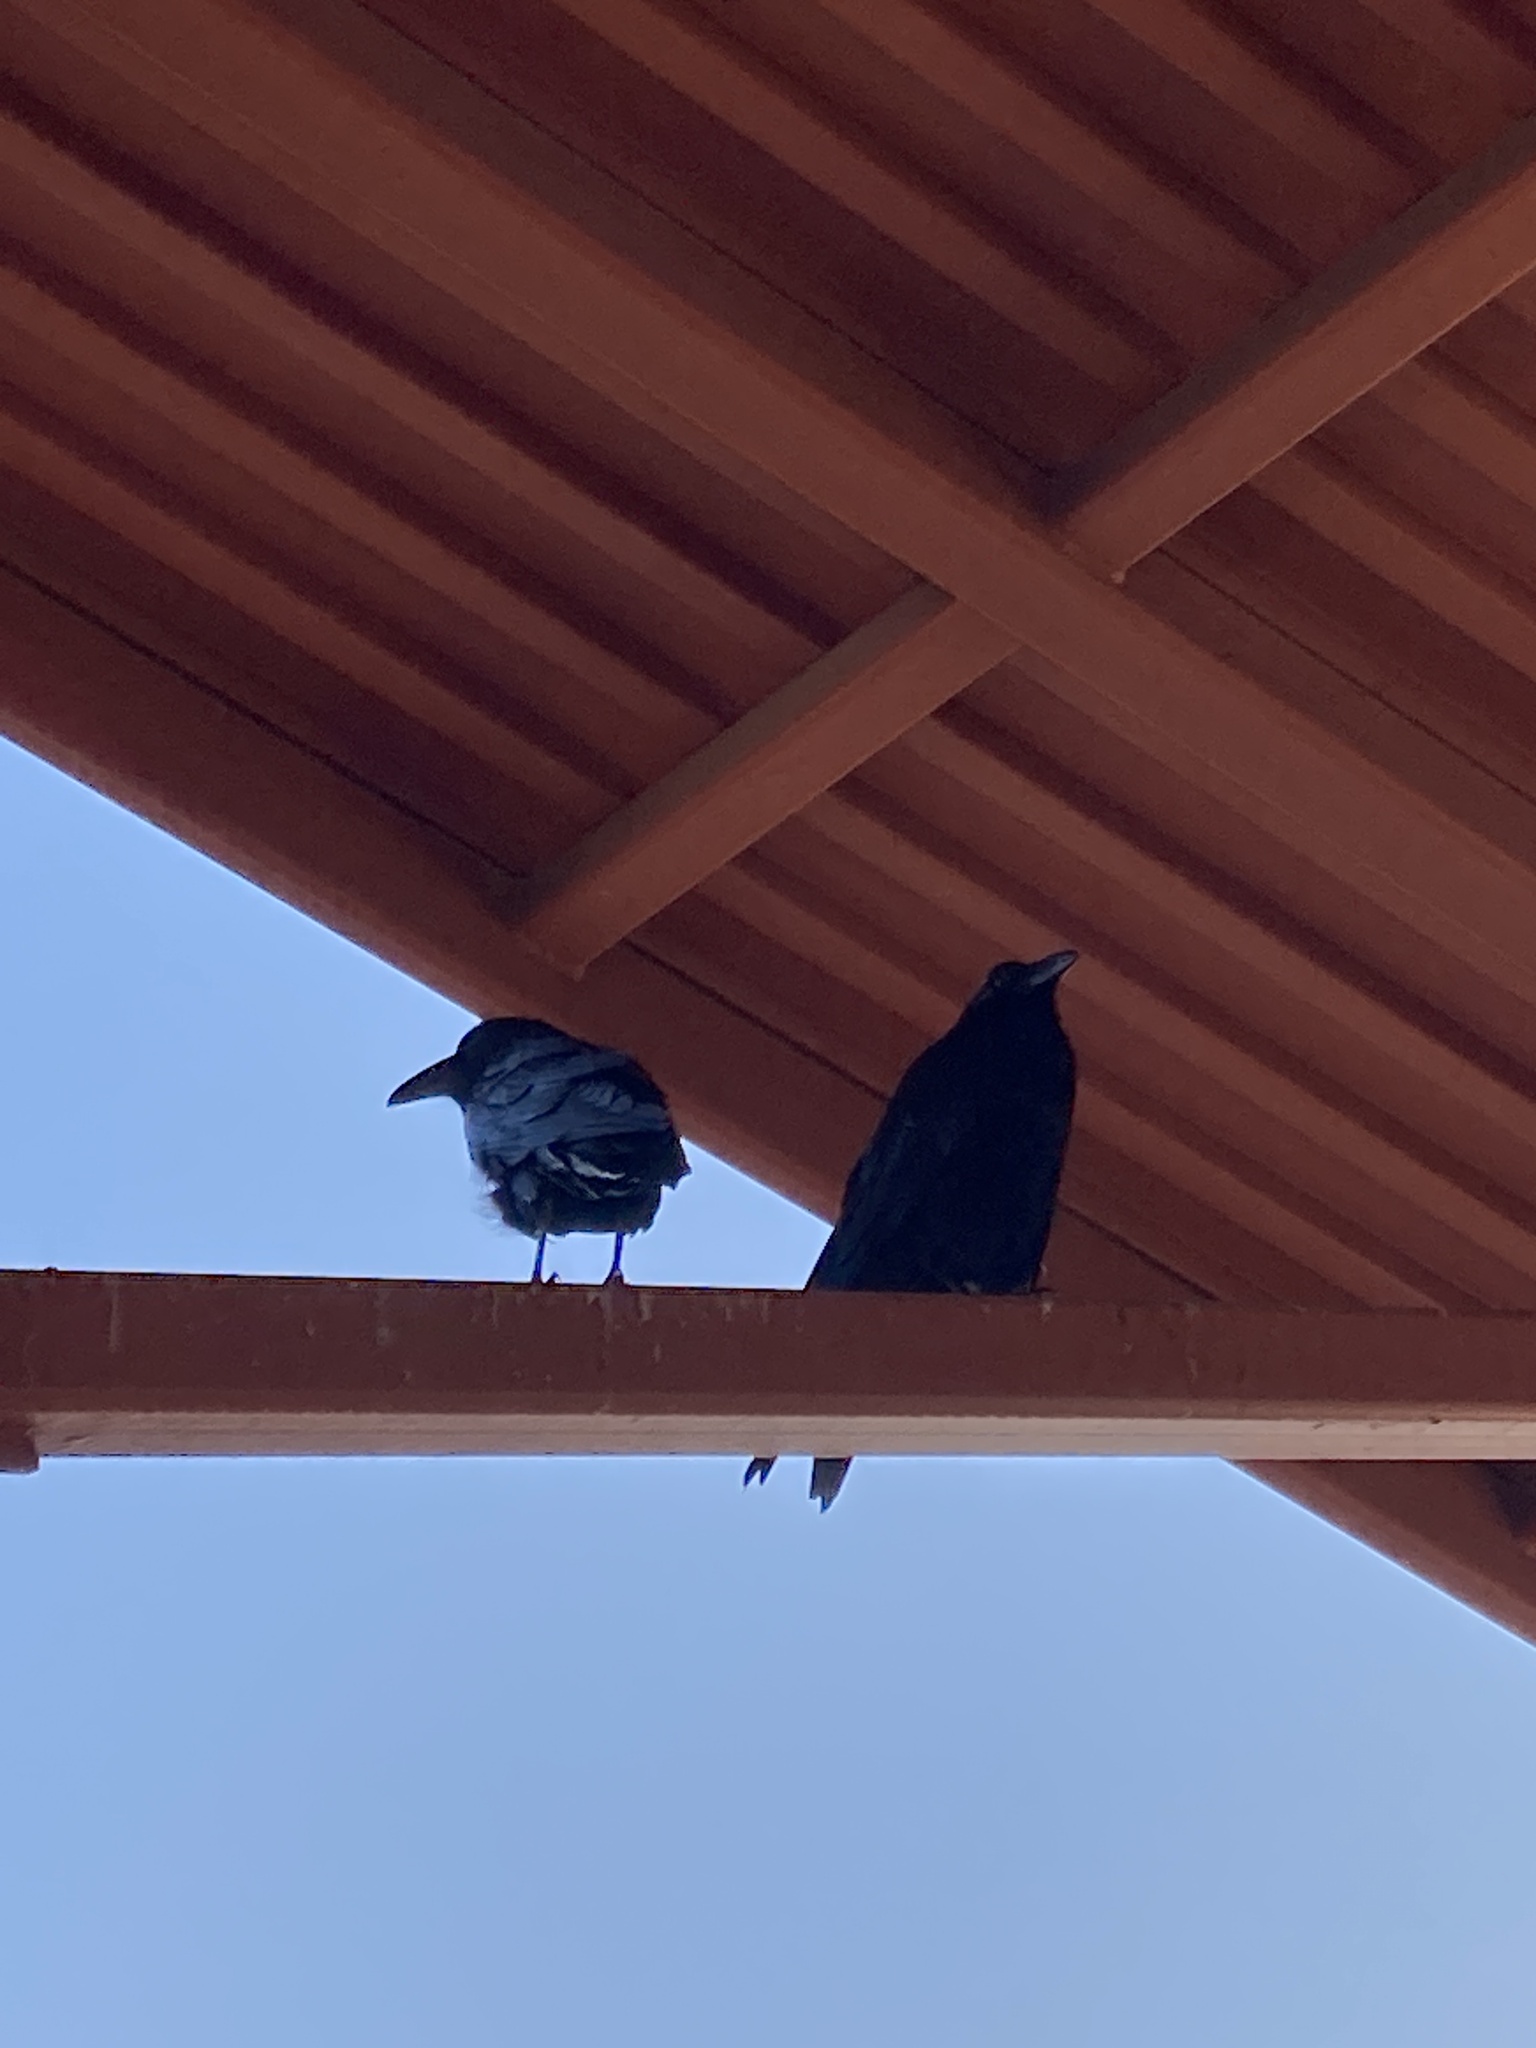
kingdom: Animalia
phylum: Chordata
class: Aves
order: Passeriformes
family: Corvidae
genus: Corvus
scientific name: Corvus corax
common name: Common raven
